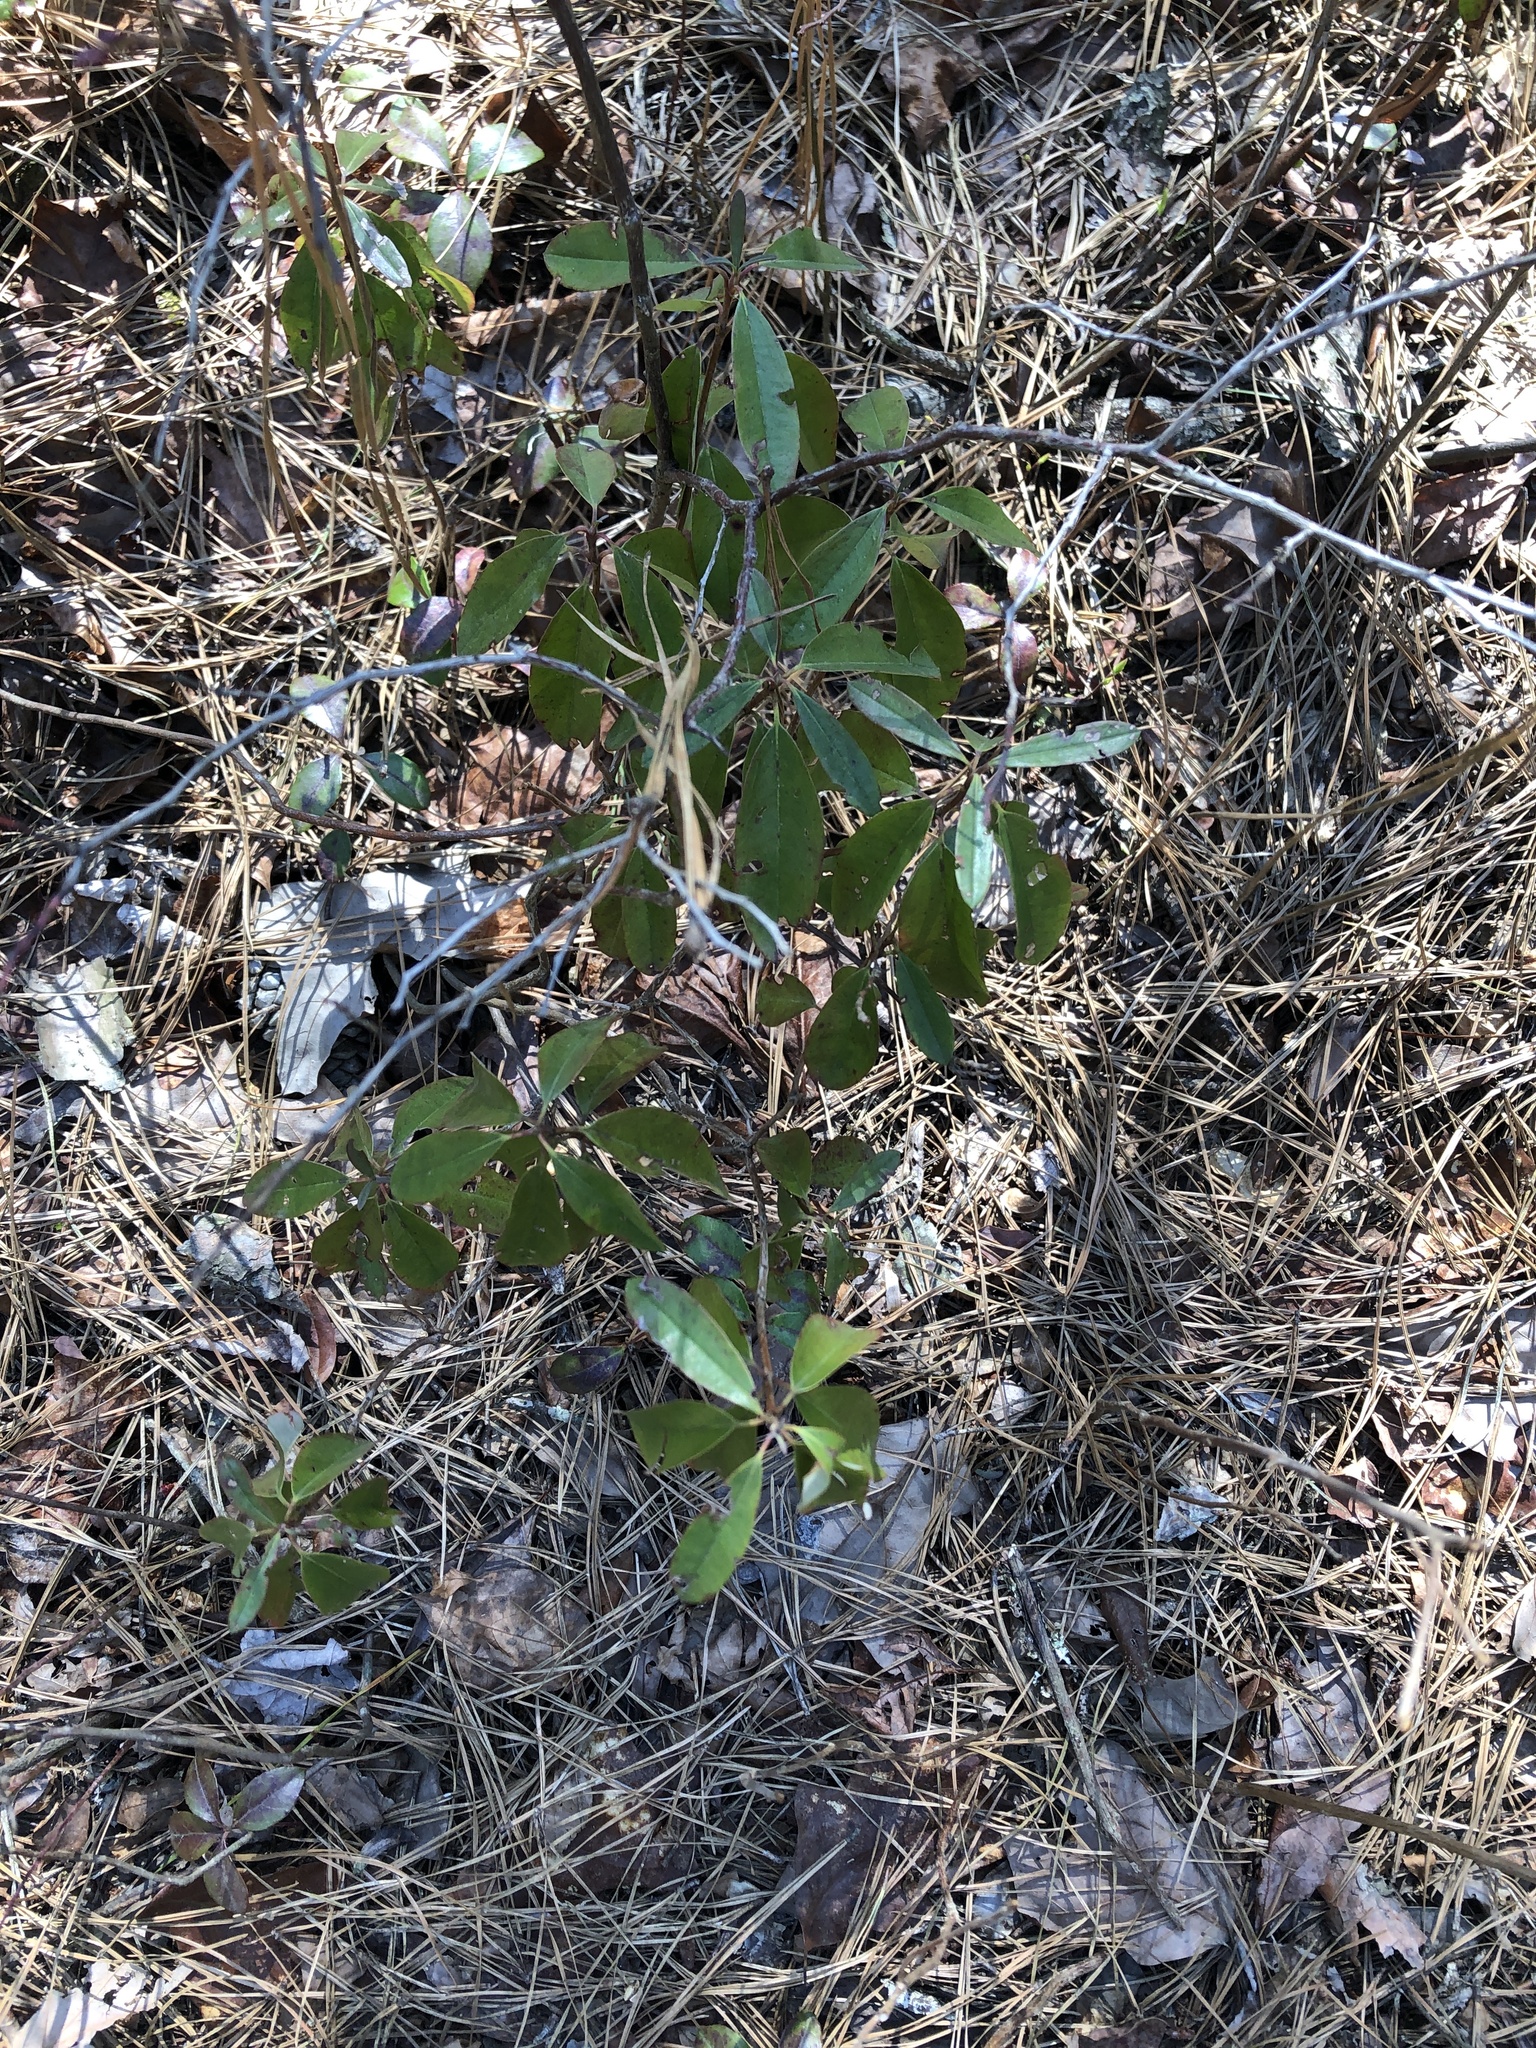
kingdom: Plantae
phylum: Tracheophyta
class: Magnoliopsida
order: Ericales
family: Ericaceae
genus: Kalmia
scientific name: Kalmia angustifolia
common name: Sheep-laurel
